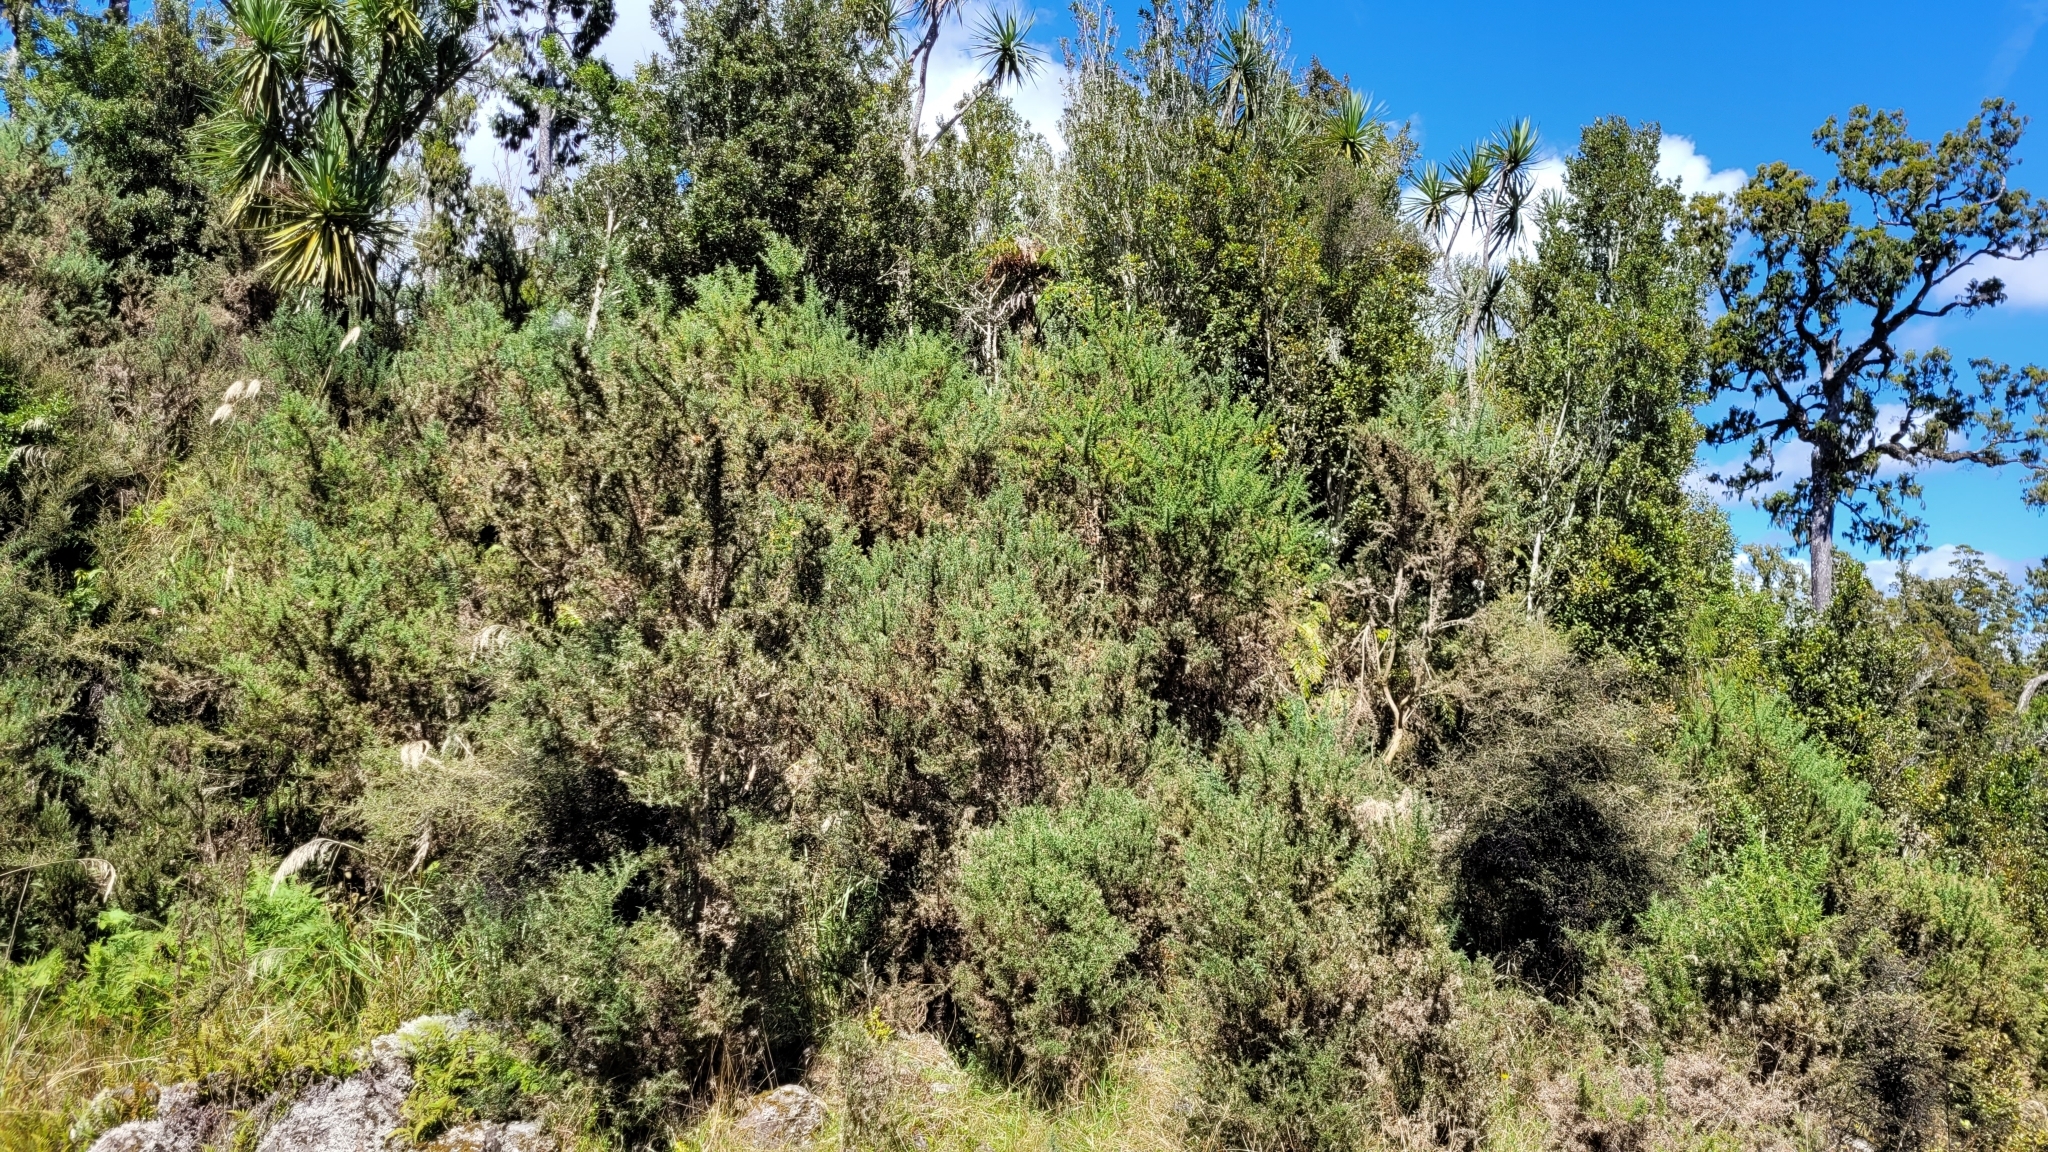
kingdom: Plantae
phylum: Tracheophyta
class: Magnoliopsida
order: Fabales
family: Fabaceae
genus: Ulex
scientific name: Ulex europaeus
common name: Common gorse
